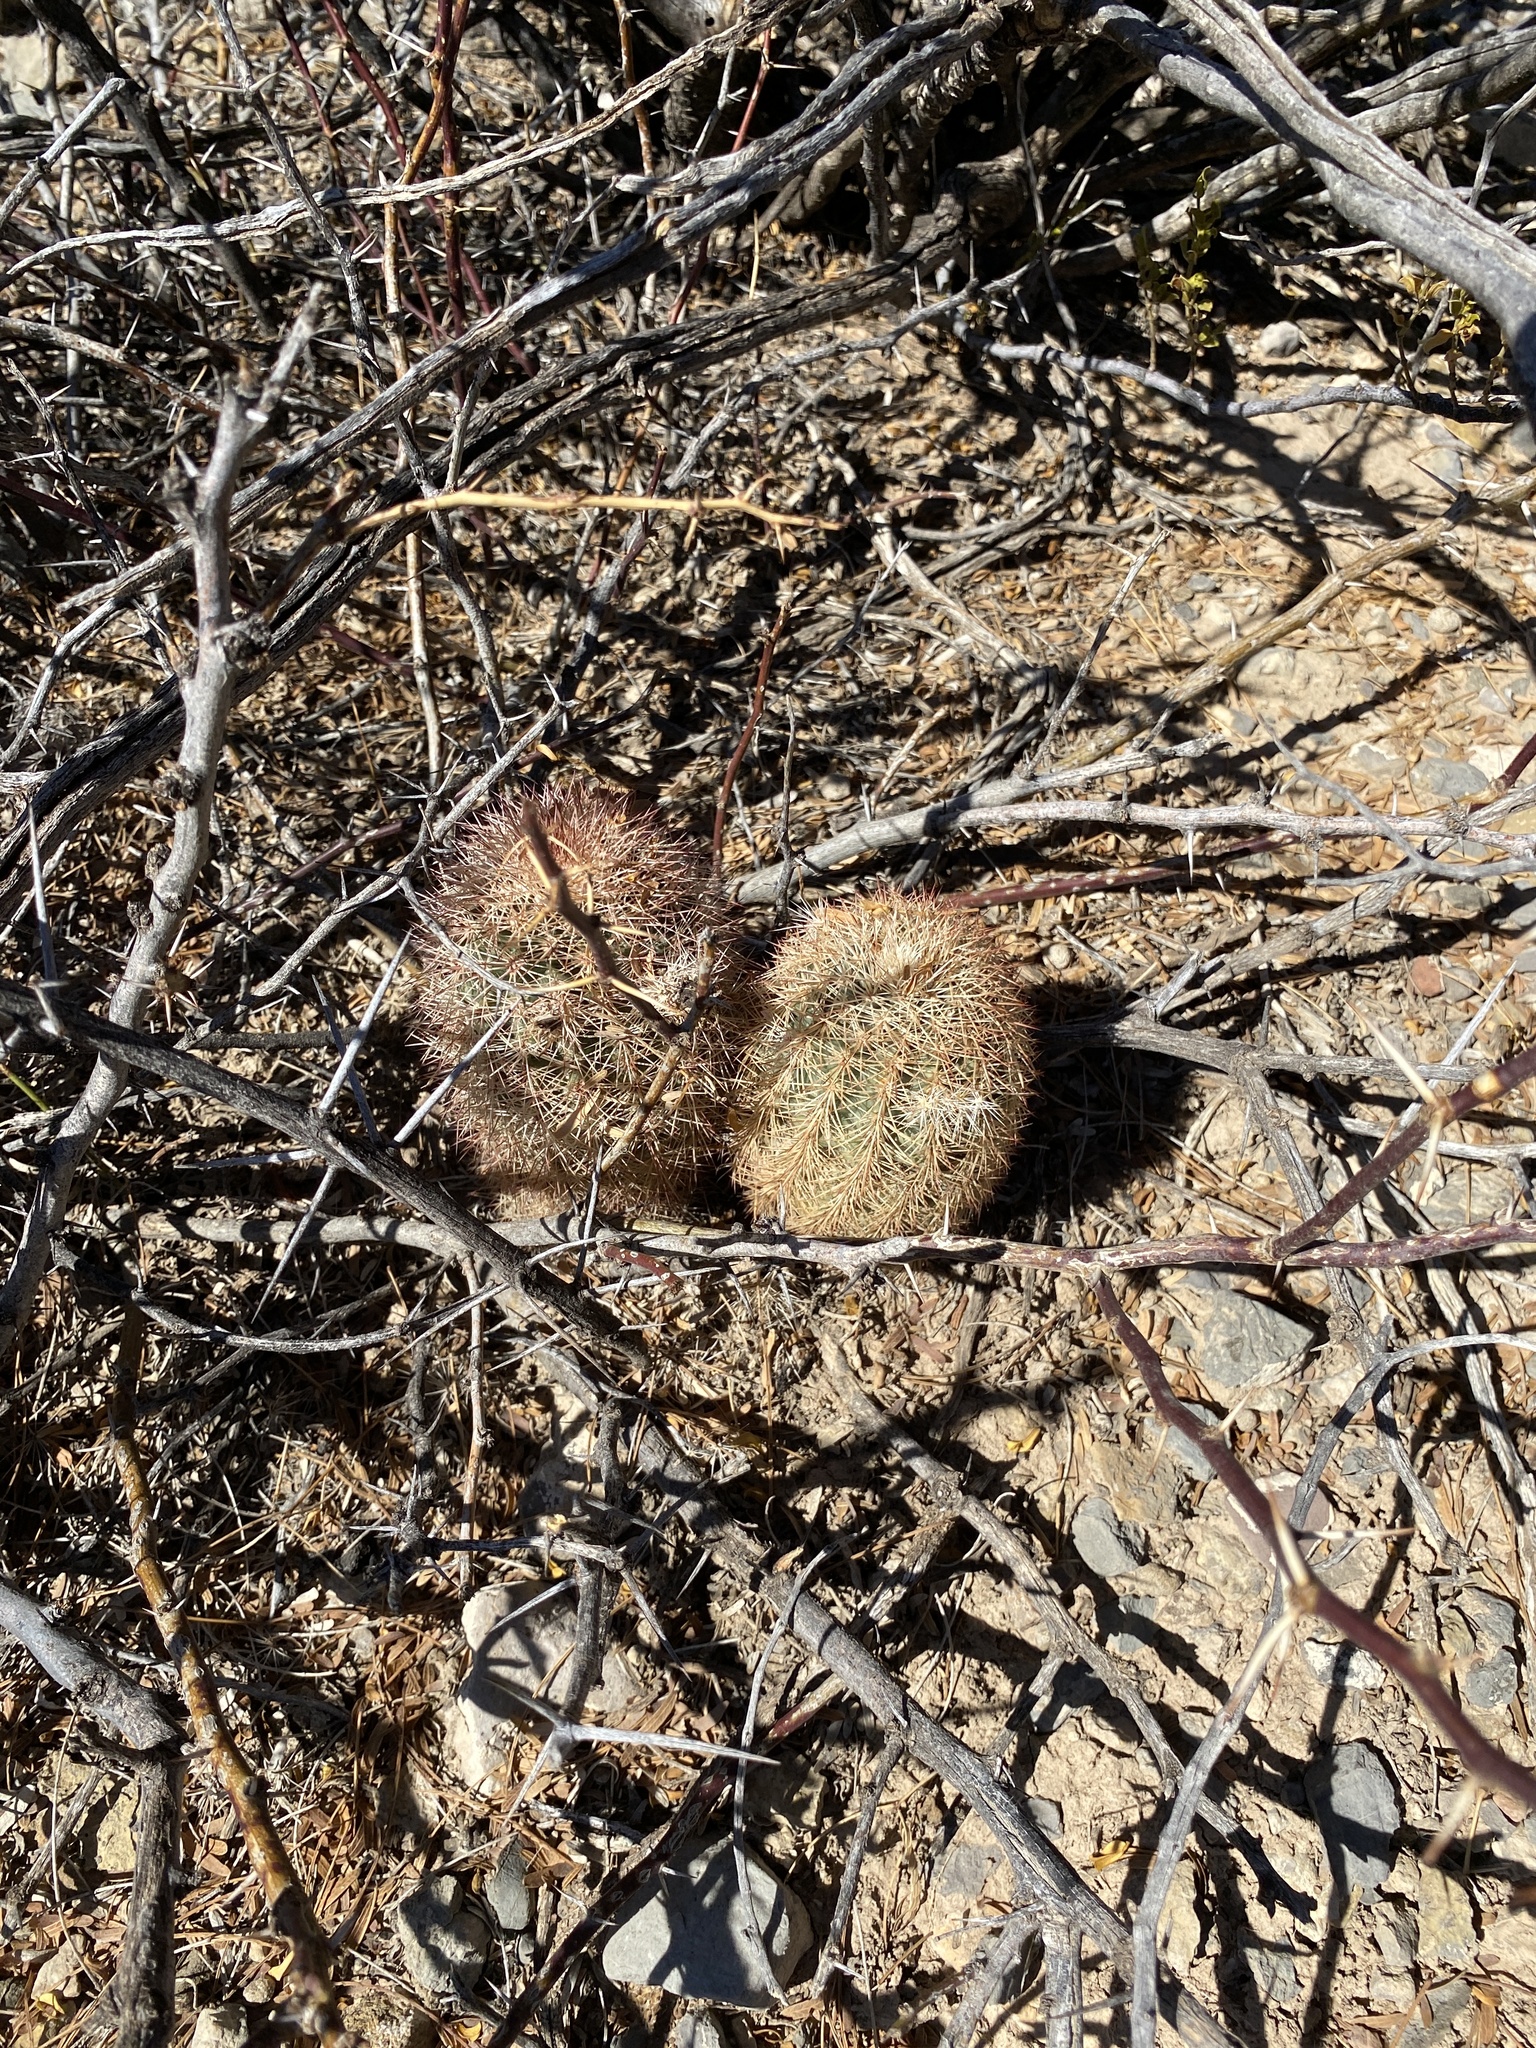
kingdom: Plantae
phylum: Tracheophyta
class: Magnoliopsida
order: Caryophyllales
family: Cactaceae
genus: Echinocereus
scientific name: Echinocereus dasyacanthus
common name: Spiny hedgehog cactus
